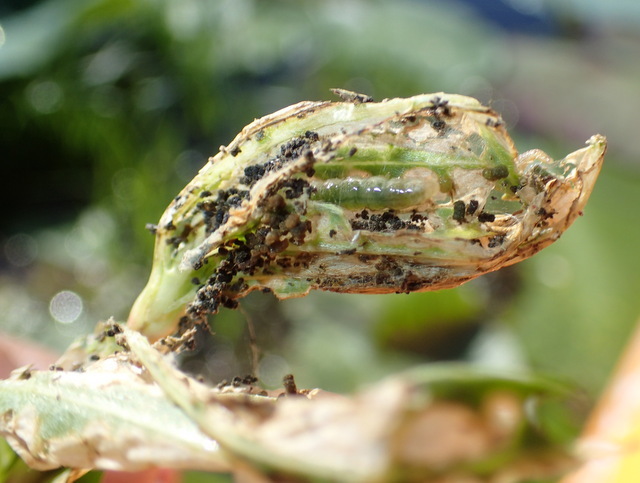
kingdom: Animalia
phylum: Arthropoda
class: Insecta
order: Coleoptera
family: Chrysomelidae
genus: Agasicles
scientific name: Agasicles hygrophila
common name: Alligatorweed flea beetle
